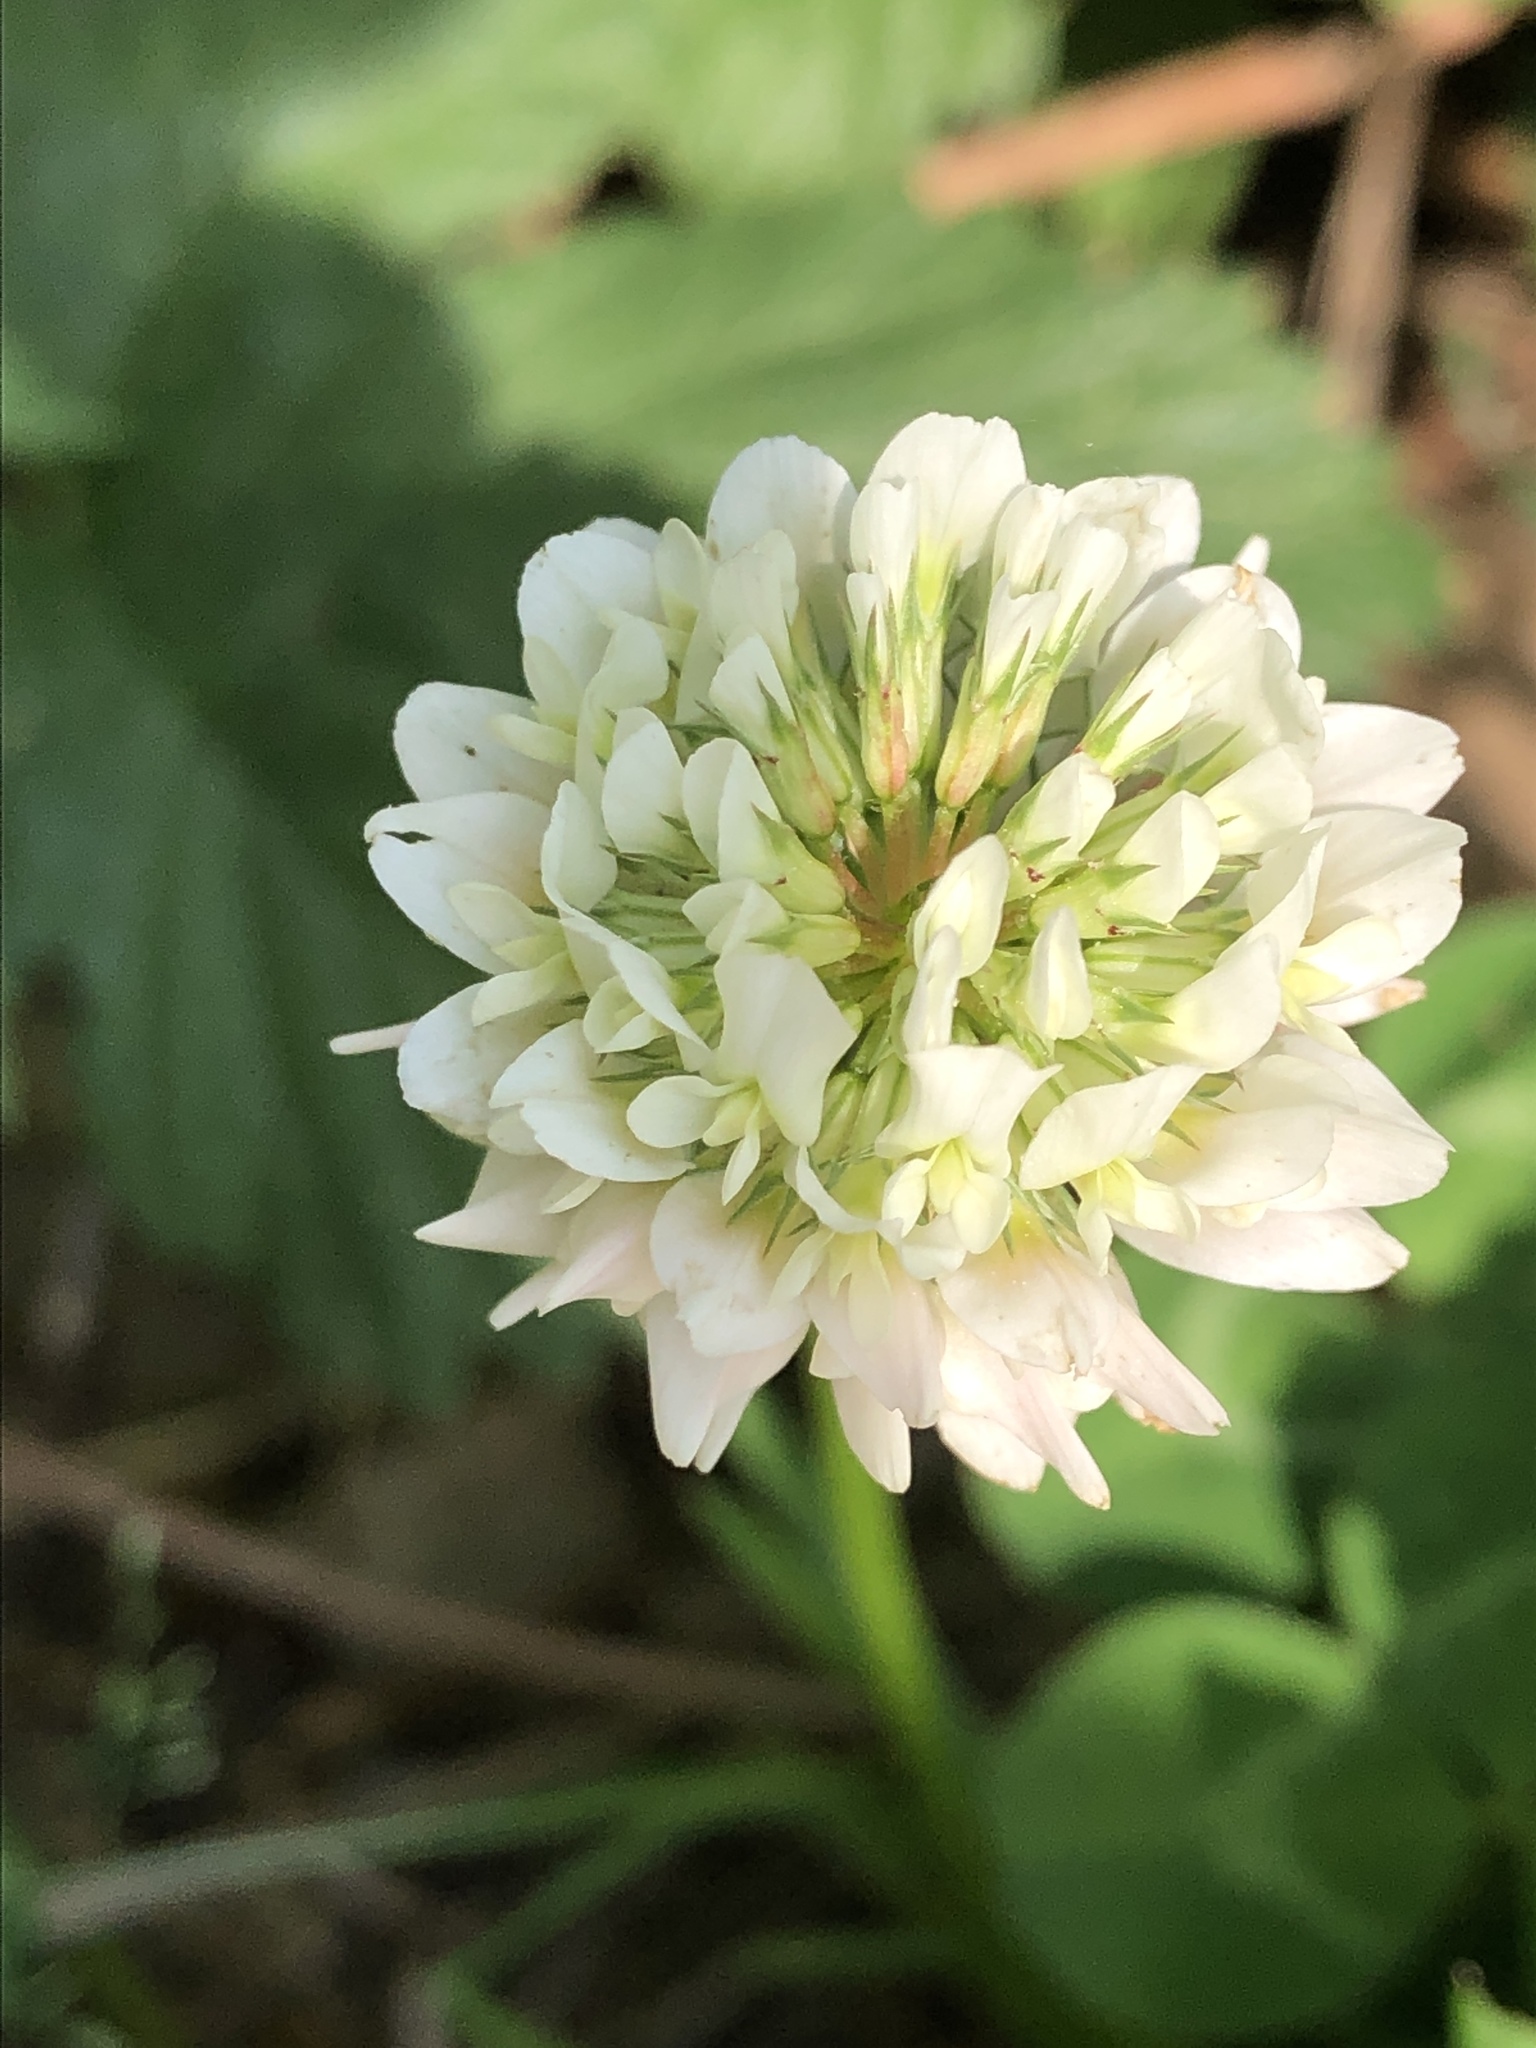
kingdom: Plantae
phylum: Tracheophyta
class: Magnoliopsida
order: Fabales
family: Fabaceae
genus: Trifolium
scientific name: Trifolium repens
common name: White clover
